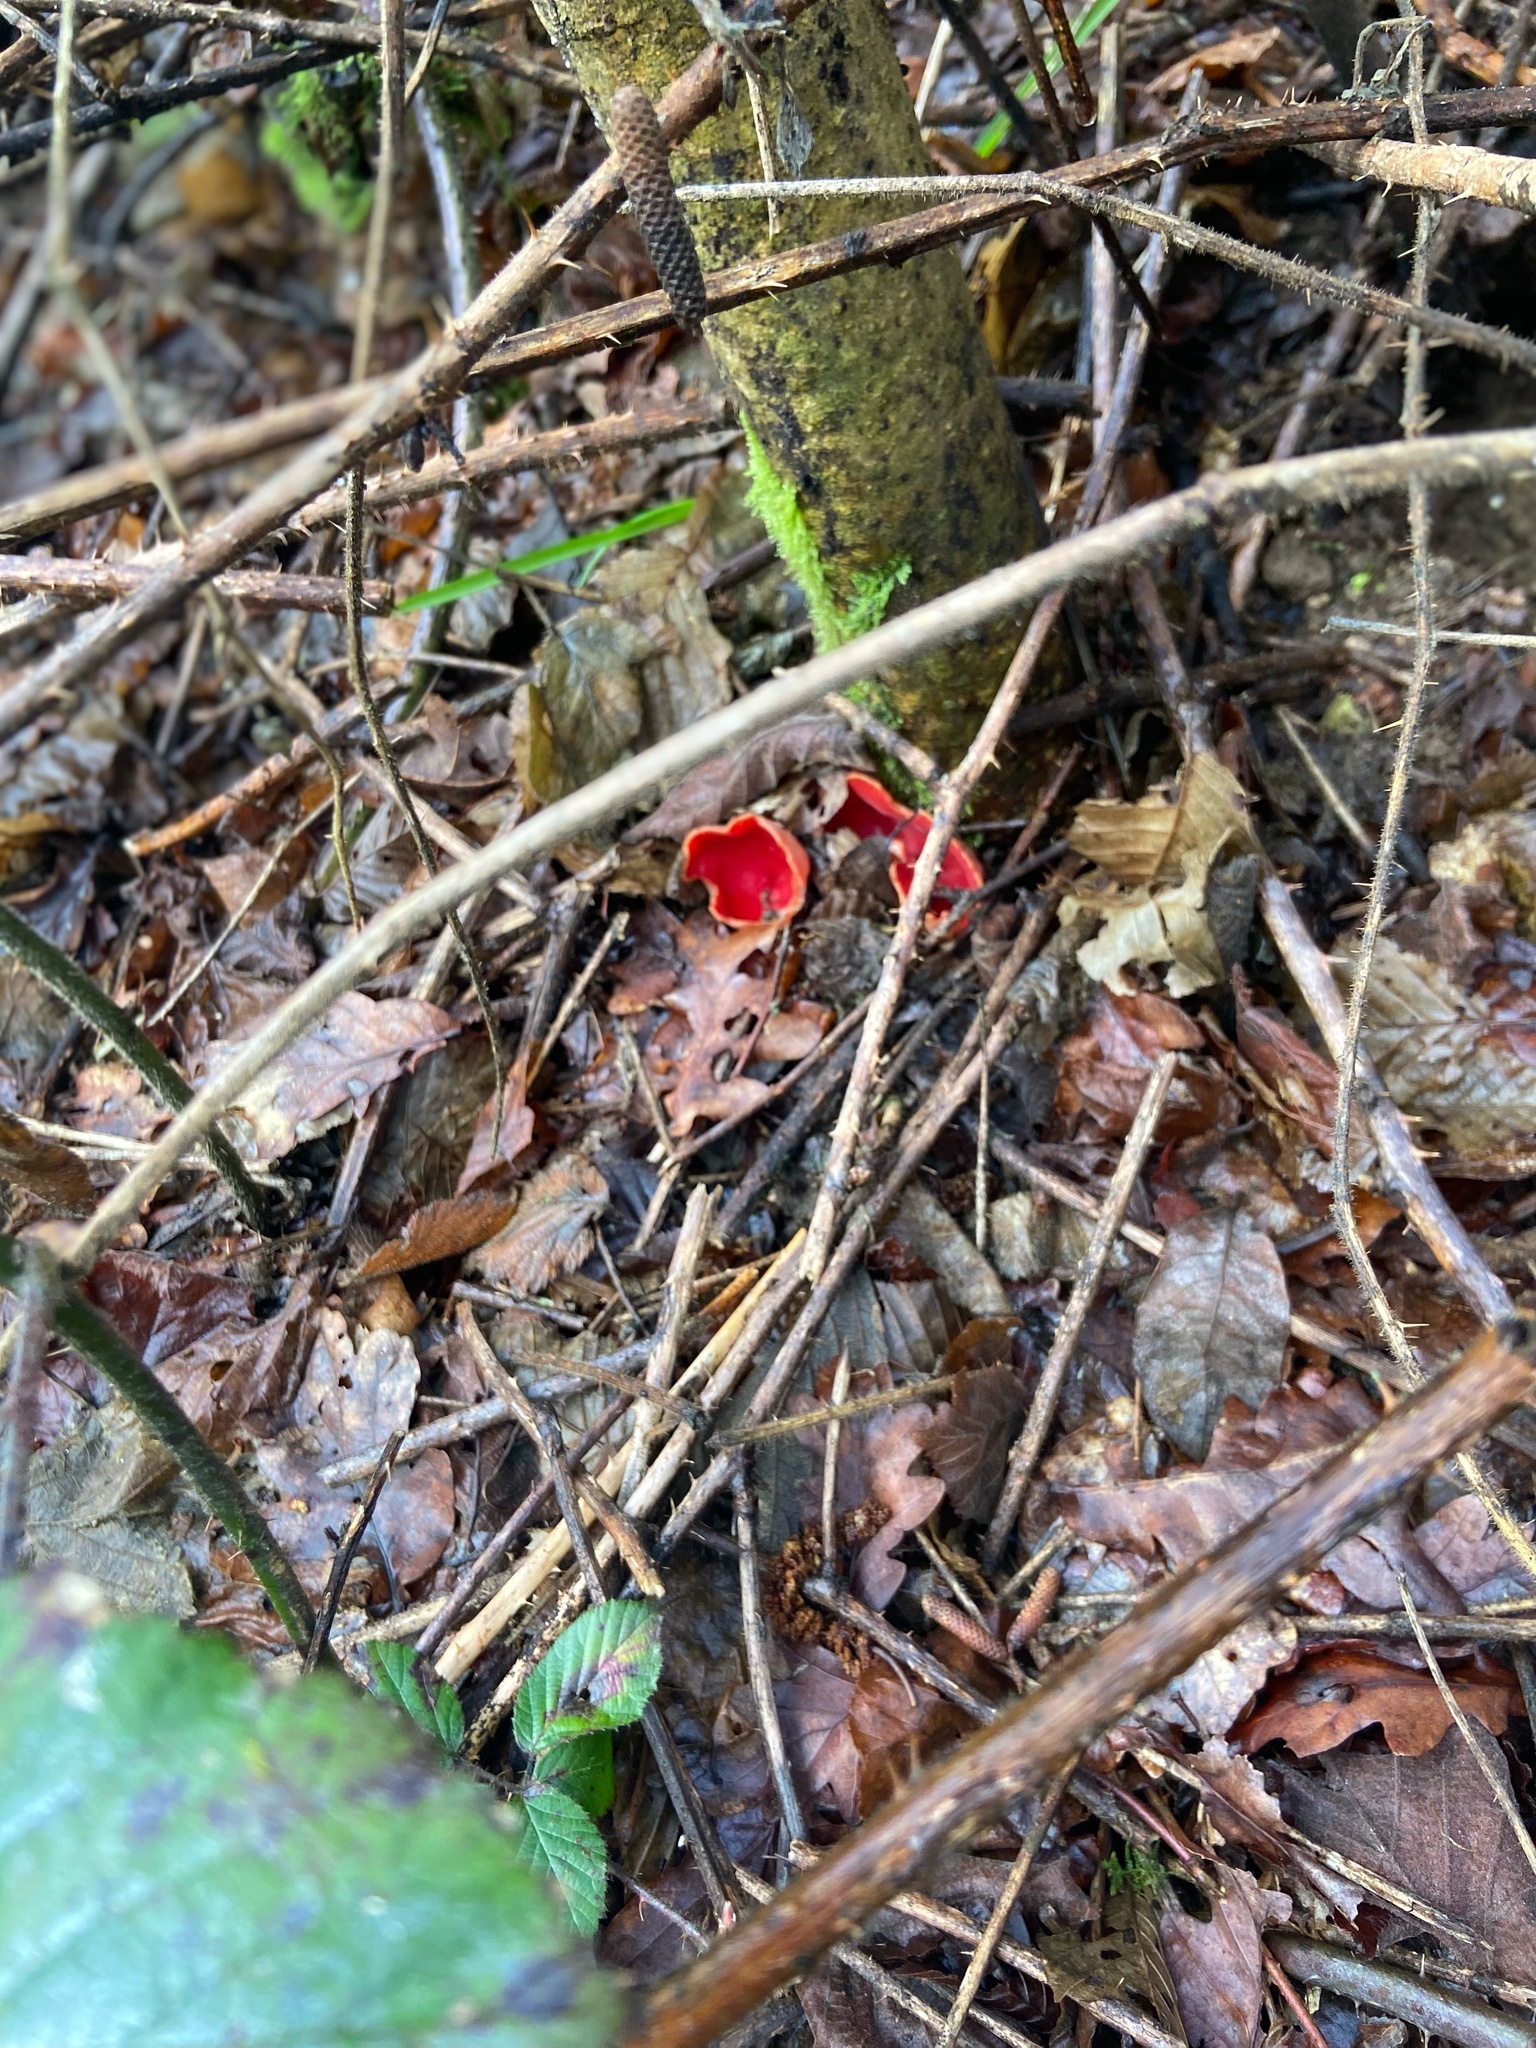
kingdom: Fungi
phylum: Ascomycota
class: Pezizomycetes
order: Pezizales
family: Sarcoscyphaceae
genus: Sarcoscypha
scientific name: Sarcoscypha
